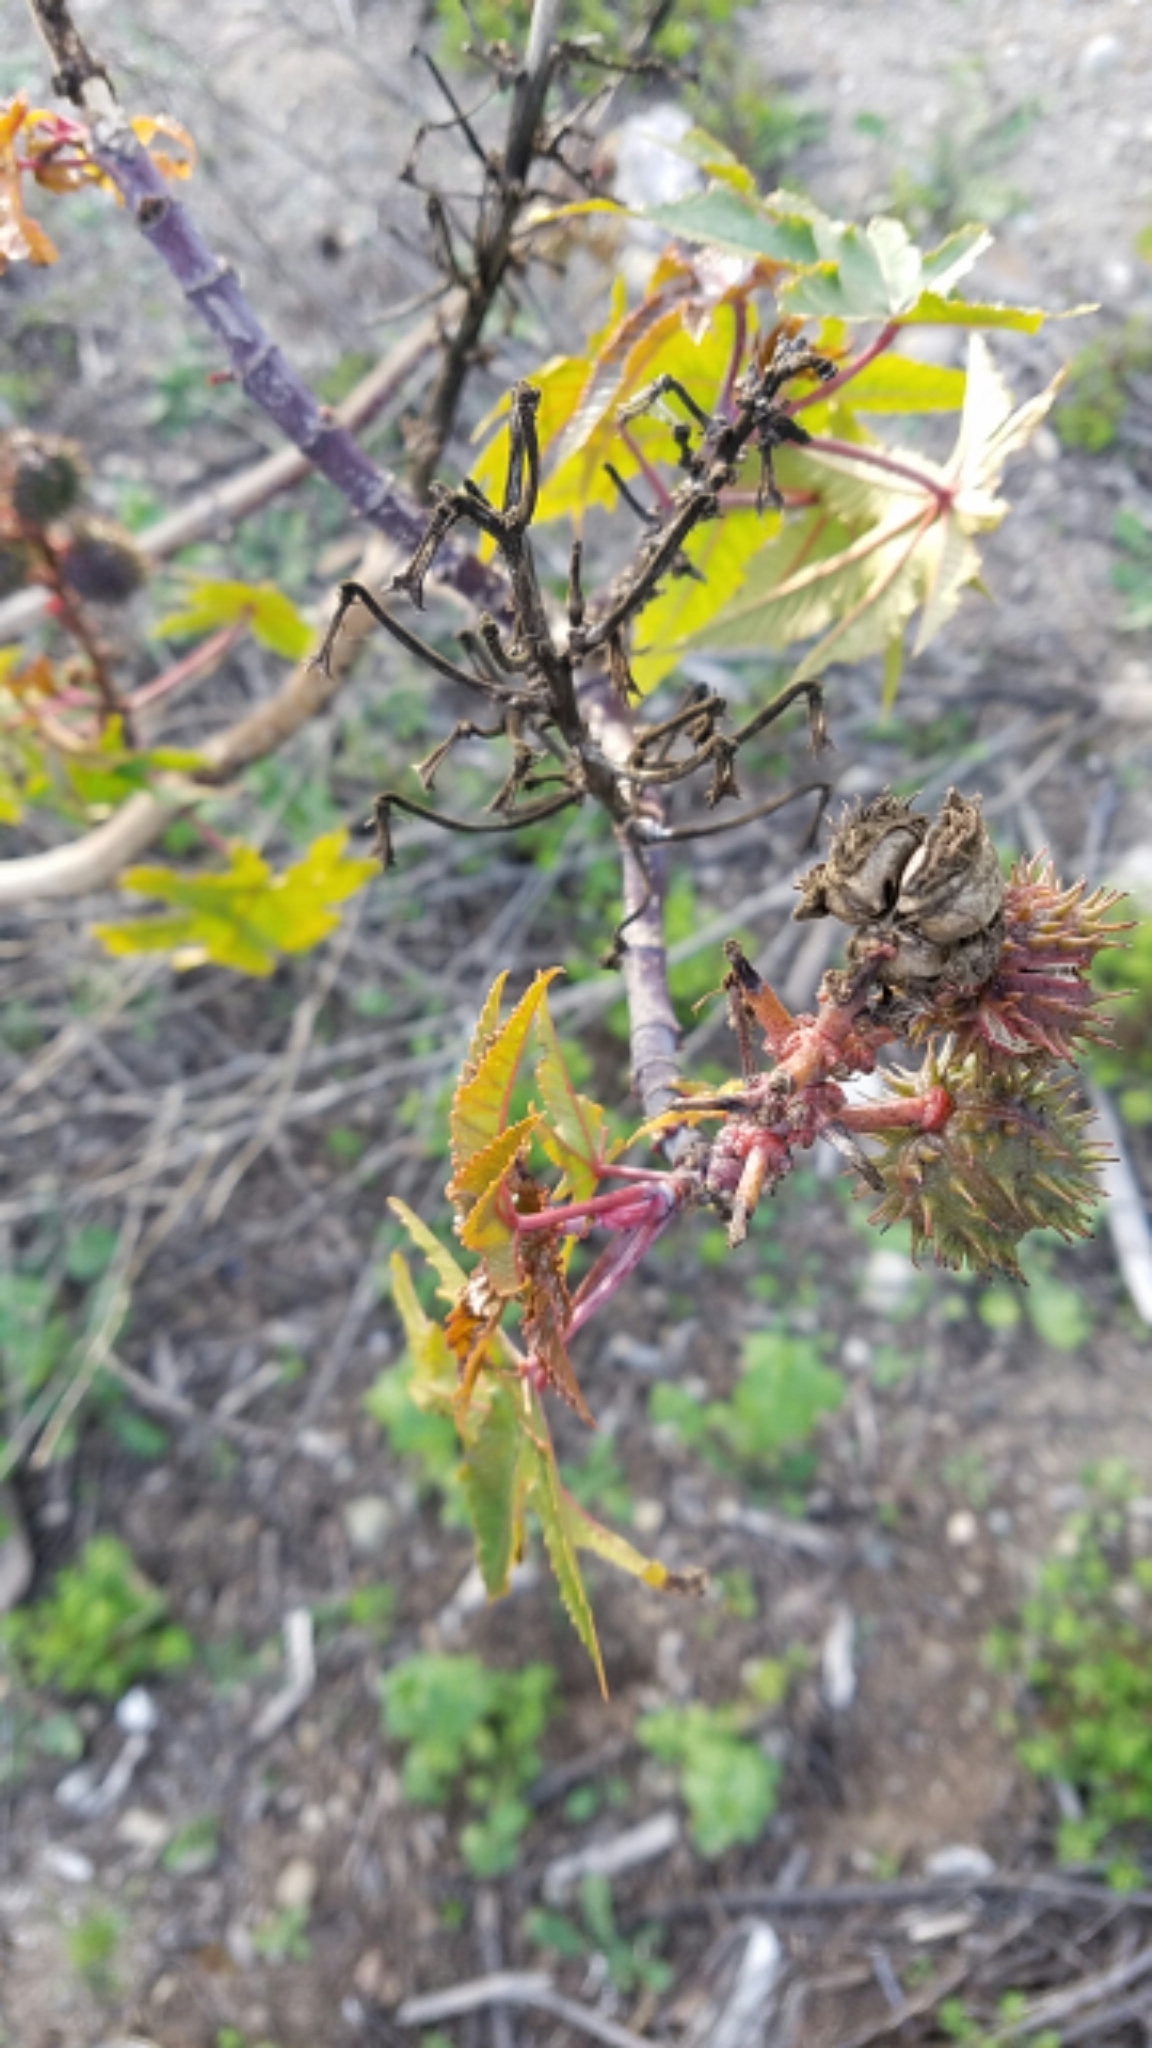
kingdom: Plantae
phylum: Tracheophyta
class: Magnoliopsida
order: Malpighiales
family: Euphorbiaceae
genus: Ricinus
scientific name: Ricinus communis
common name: Castor-oil-plant
